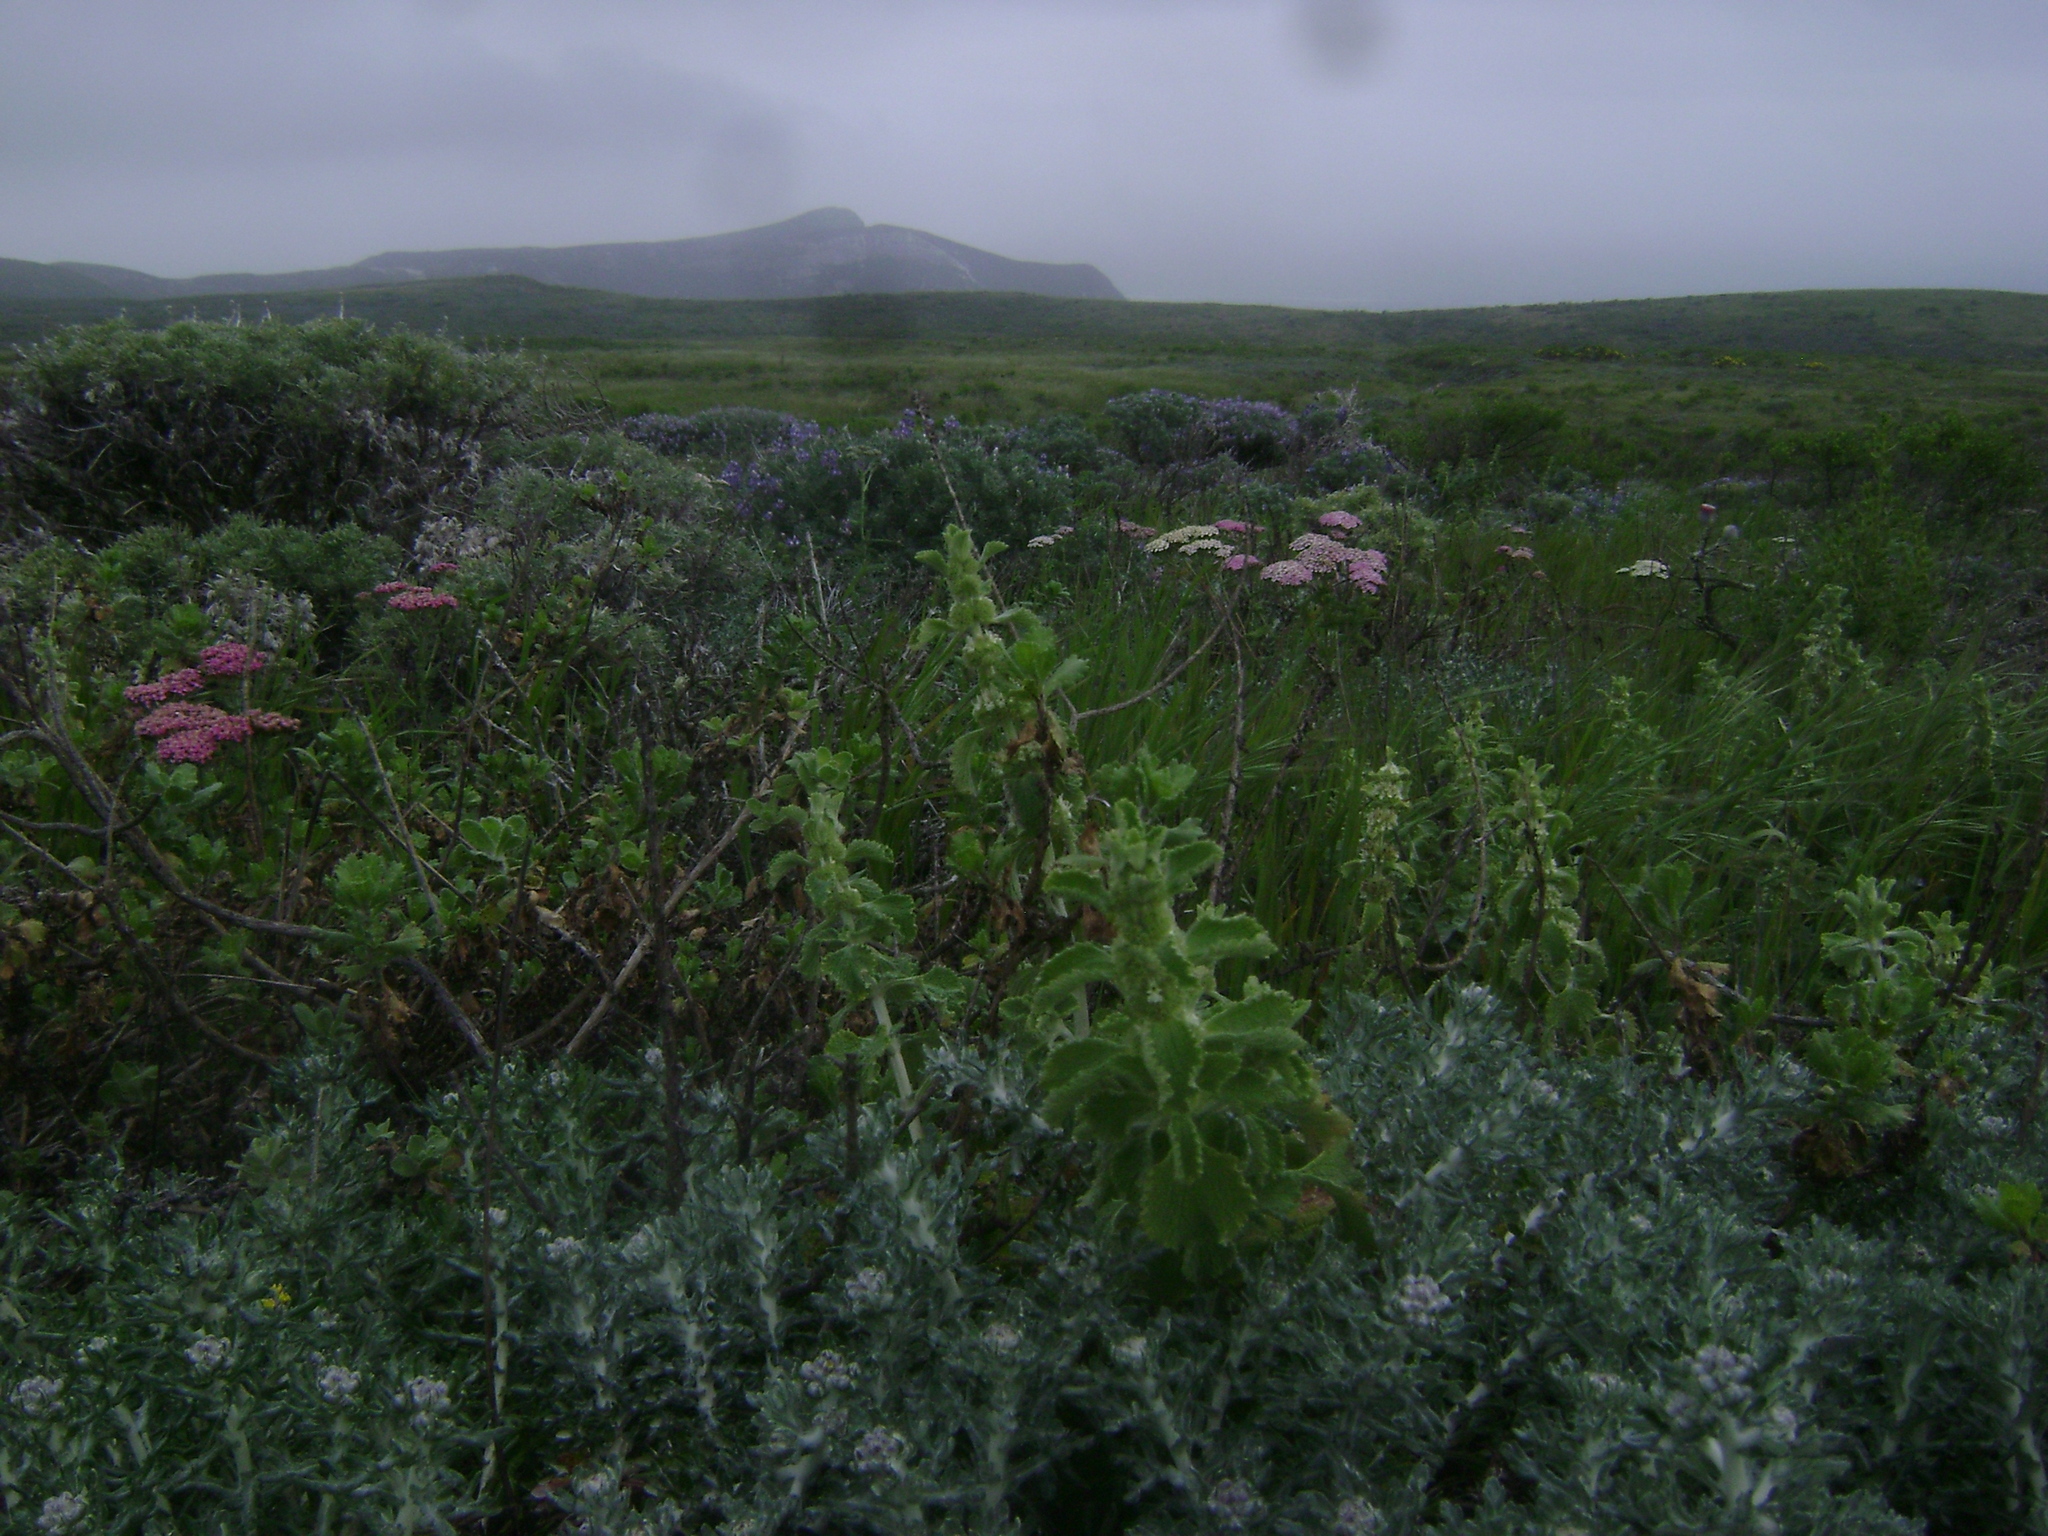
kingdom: Plantae
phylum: Tracheophyta
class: Magnoliopsida
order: Asterales
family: Asteraceae
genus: Achillea
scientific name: Achillea millefolium
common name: Yarrow
